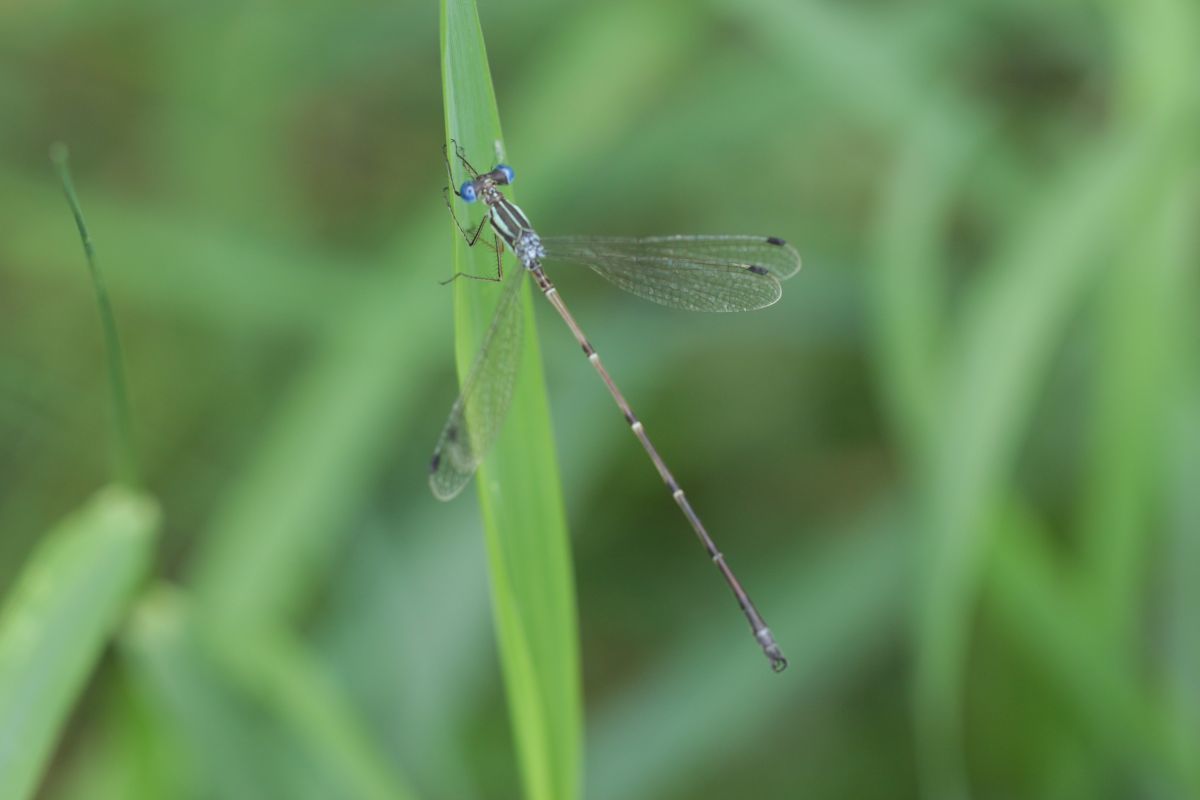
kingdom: Animalia
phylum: Arthropoda
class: Insecta
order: Odonata
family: Lestidae
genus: Lestes
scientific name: Lestes rectangularis
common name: Slender spreadwing
